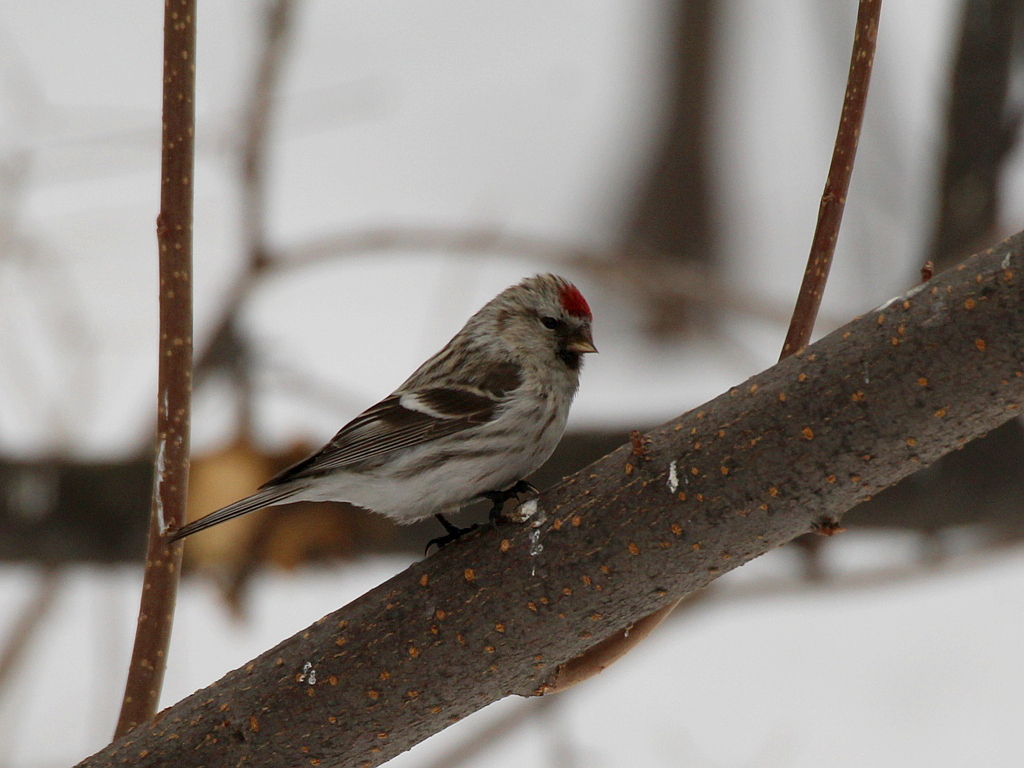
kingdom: Animalia
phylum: Chordata
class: Aves
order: Passeriformes
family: Fringillidae
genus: Acanthis
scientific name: Acanthis hornemanni
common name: Arctic redpoll
